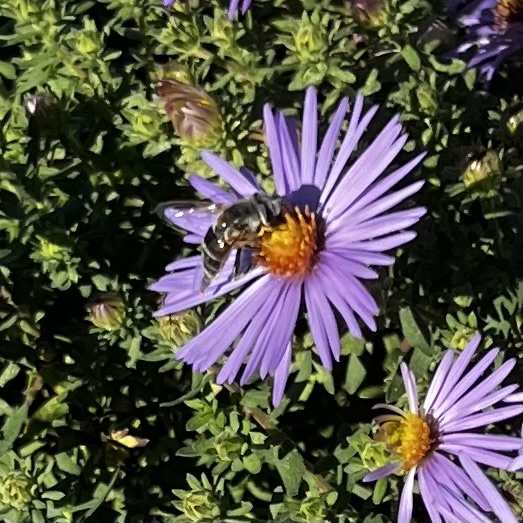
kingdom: Animalia
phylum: Arthropoda
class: Insecta
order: Diptera
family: Syrphidae
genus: Eristalis
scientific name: Eristalis stipator
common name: Yellow-shouldered drone fly
